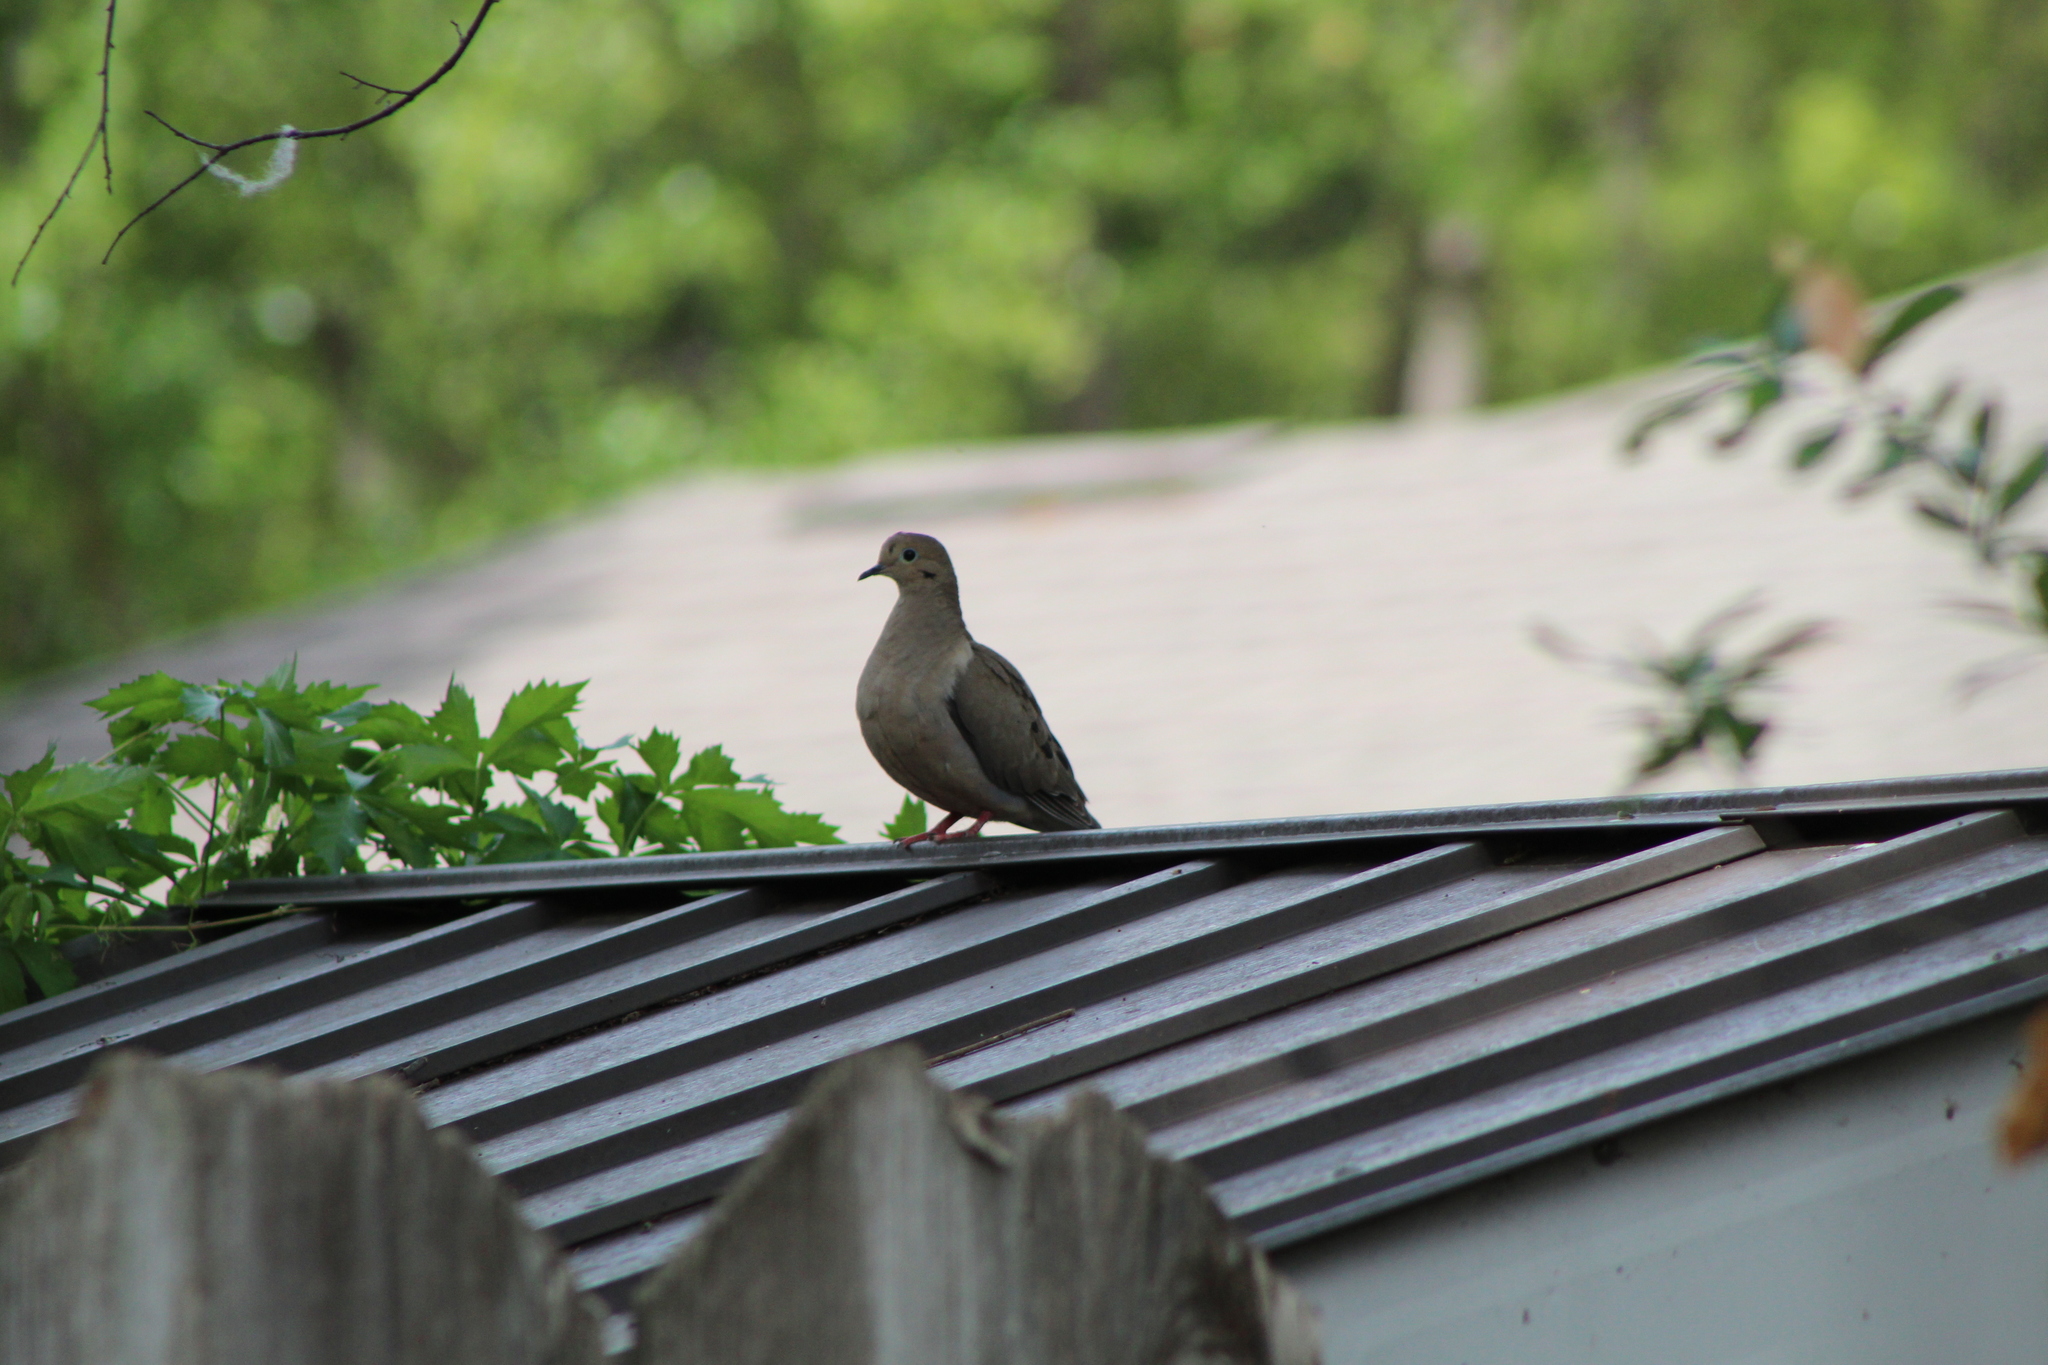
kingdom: Animalia
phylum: Chordata
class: Aves
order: Columbiformes
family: Columbidae
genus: Zenaida
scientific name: Zenaida macroura
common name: Mourning dove
